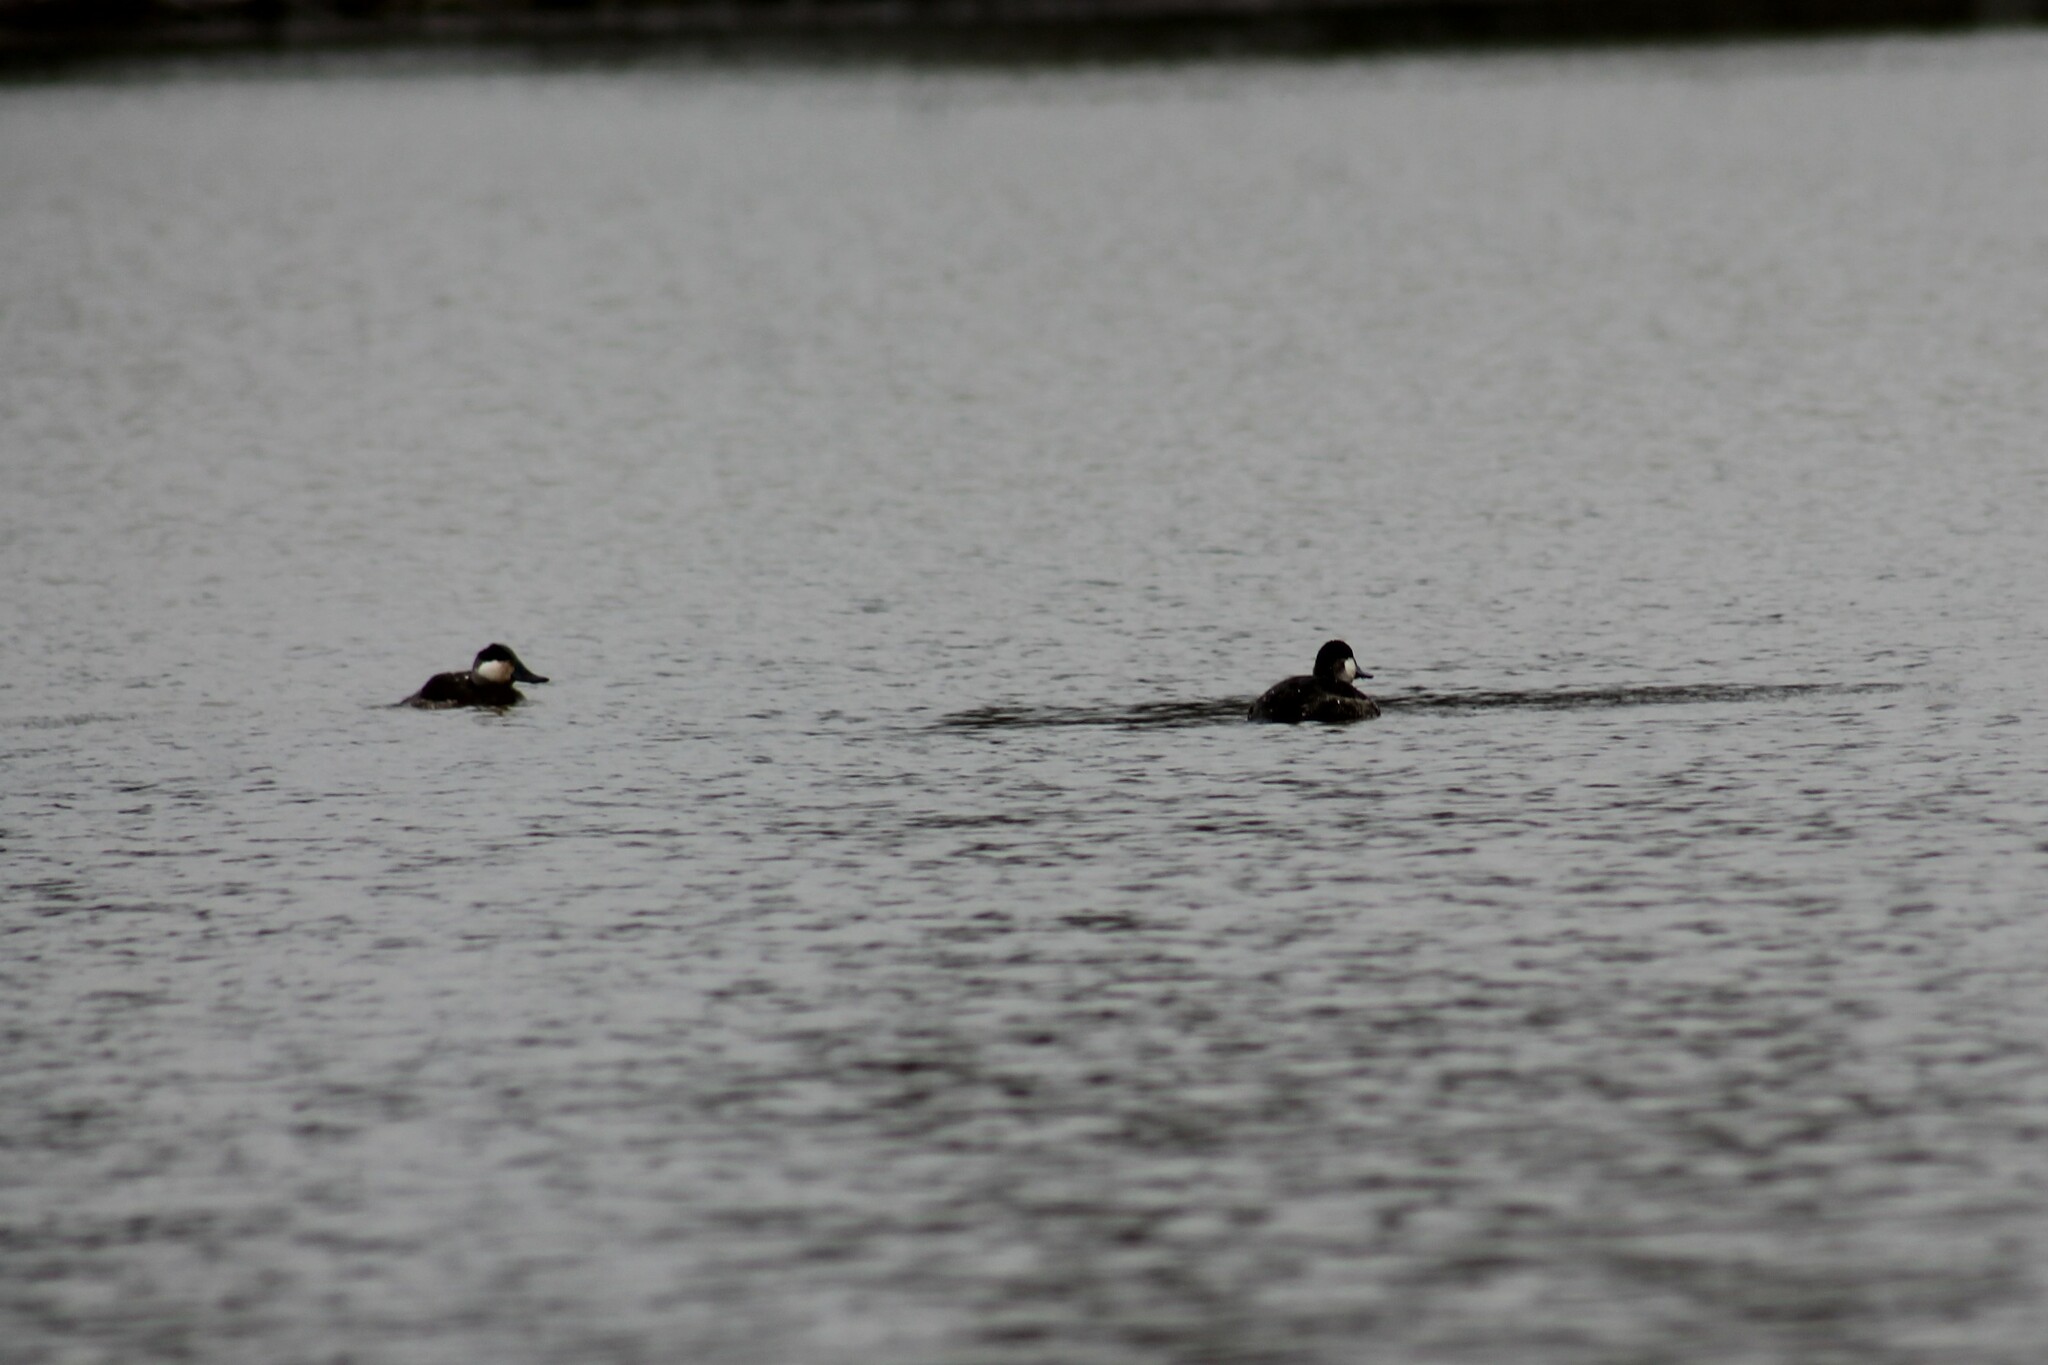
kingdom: Animalia
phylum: Chordata
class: Aves
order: Anseriformes
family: Anatidae
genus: Oxyura
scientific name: Oxyura jamaicensis
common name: Ruddy duck
